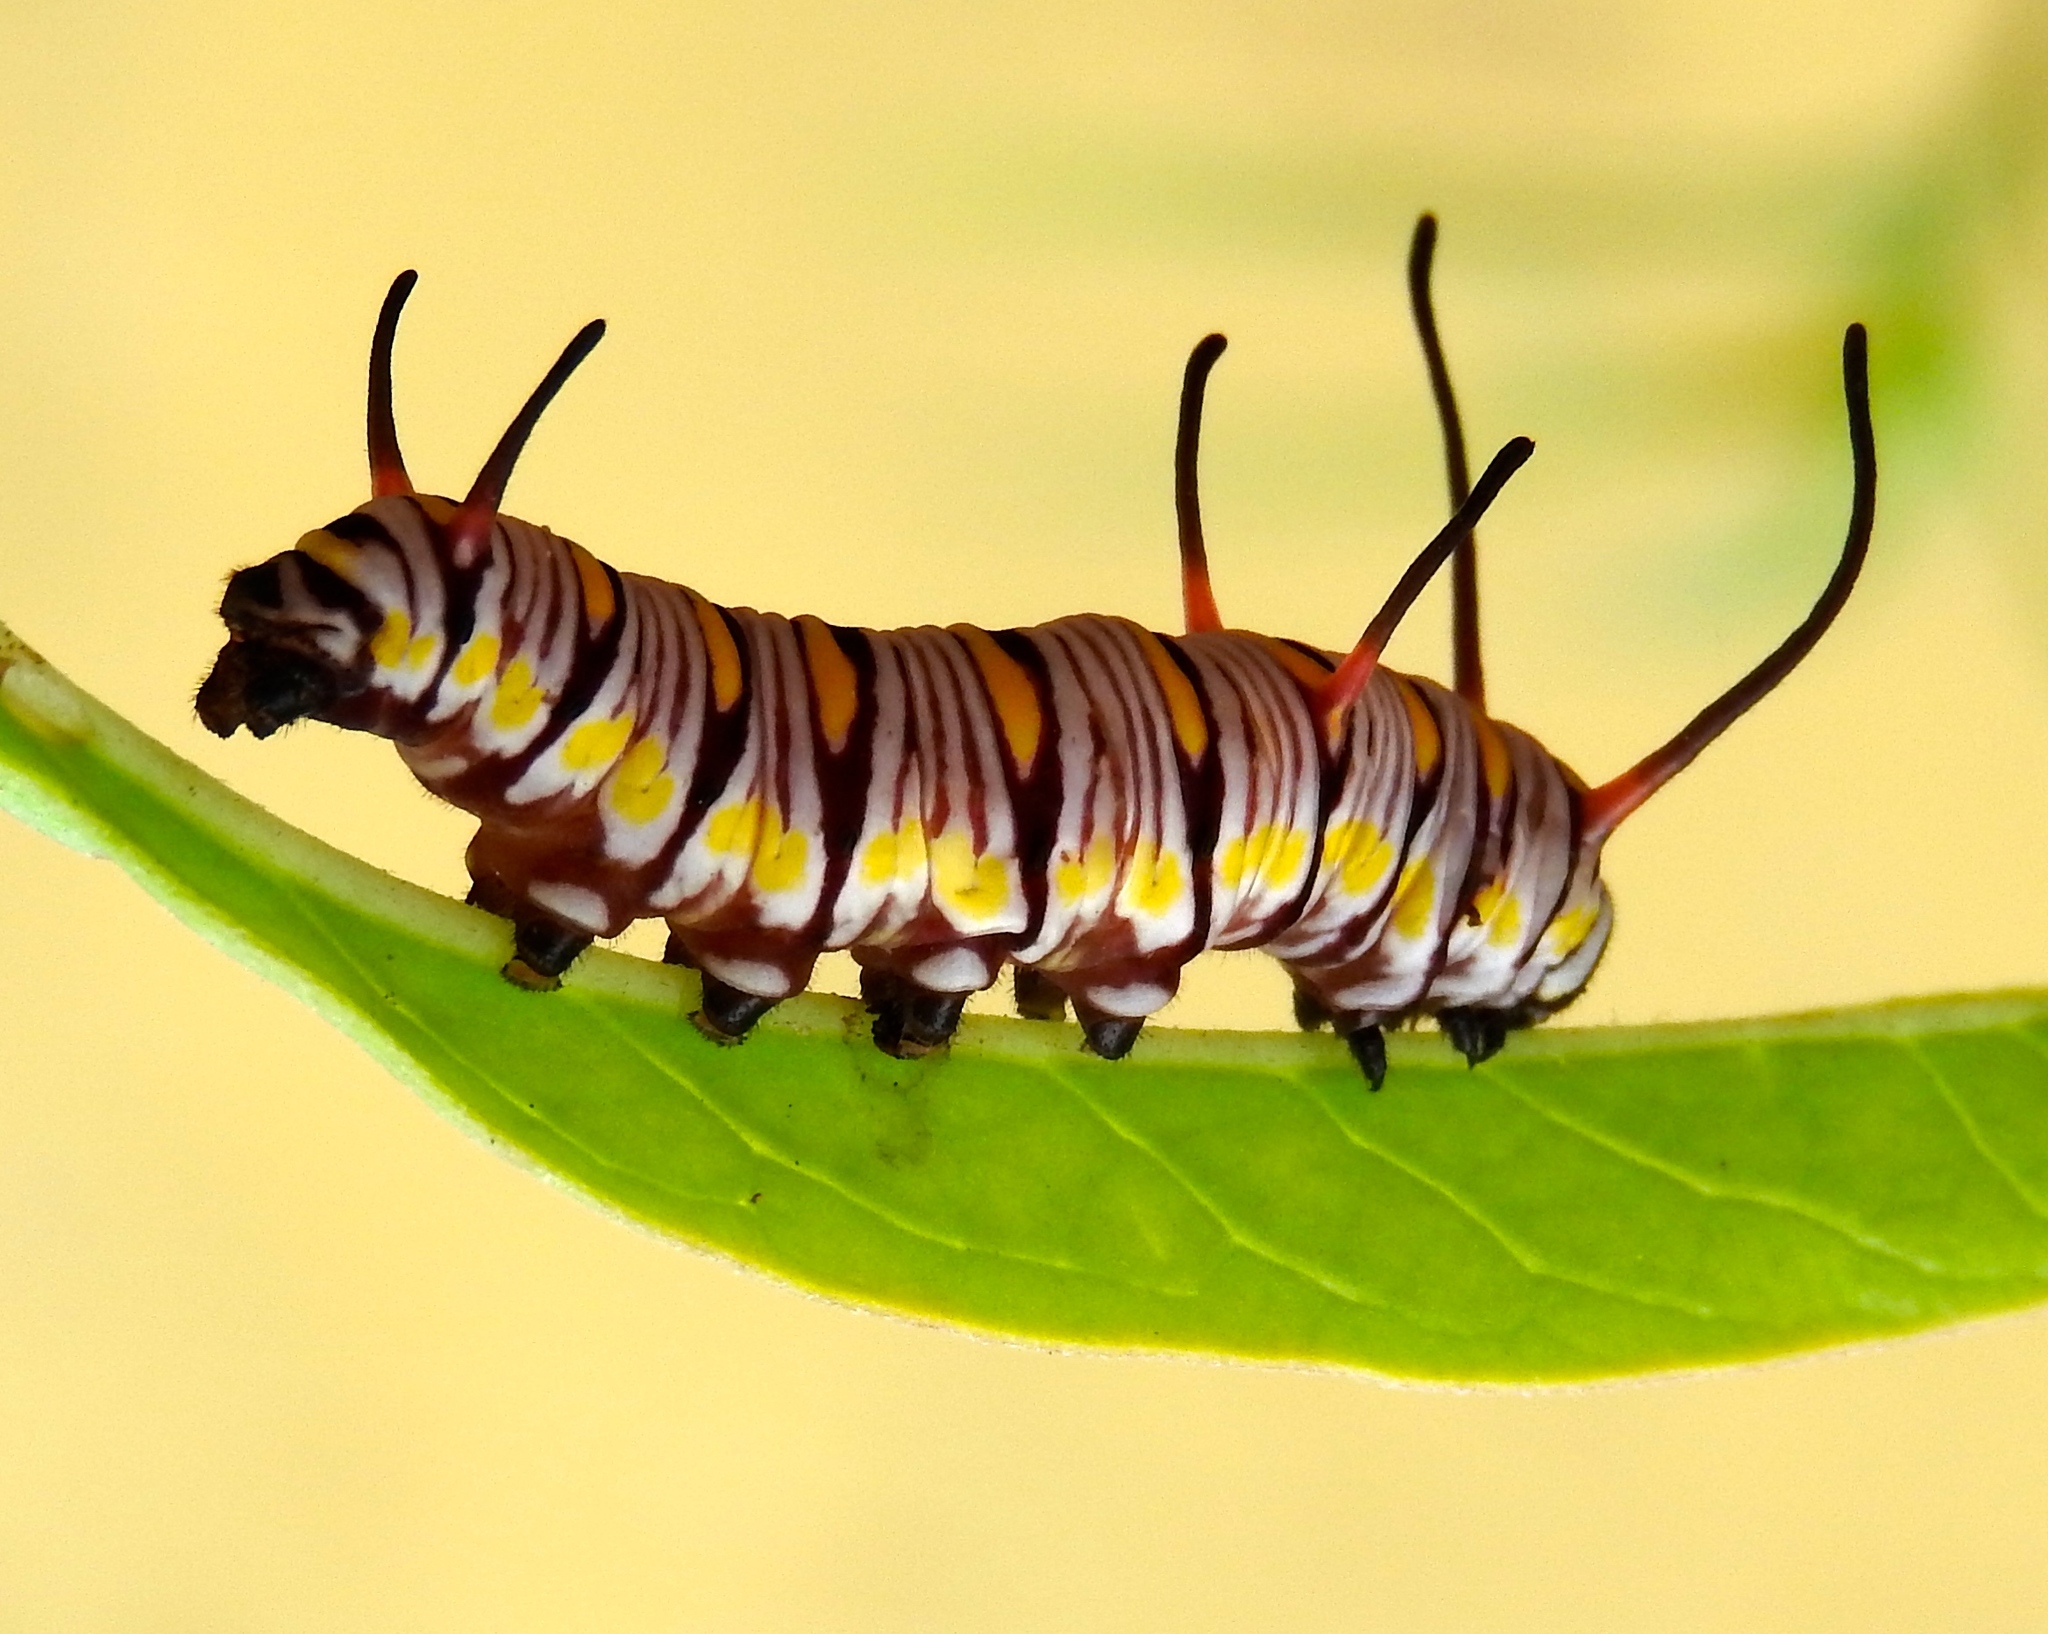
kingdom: Animalia
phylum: Arthropoda
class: Insecta
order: Lepidoptera
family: Nymphalidae
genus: Danaus
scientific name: Danaus gilippus
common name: Queen
